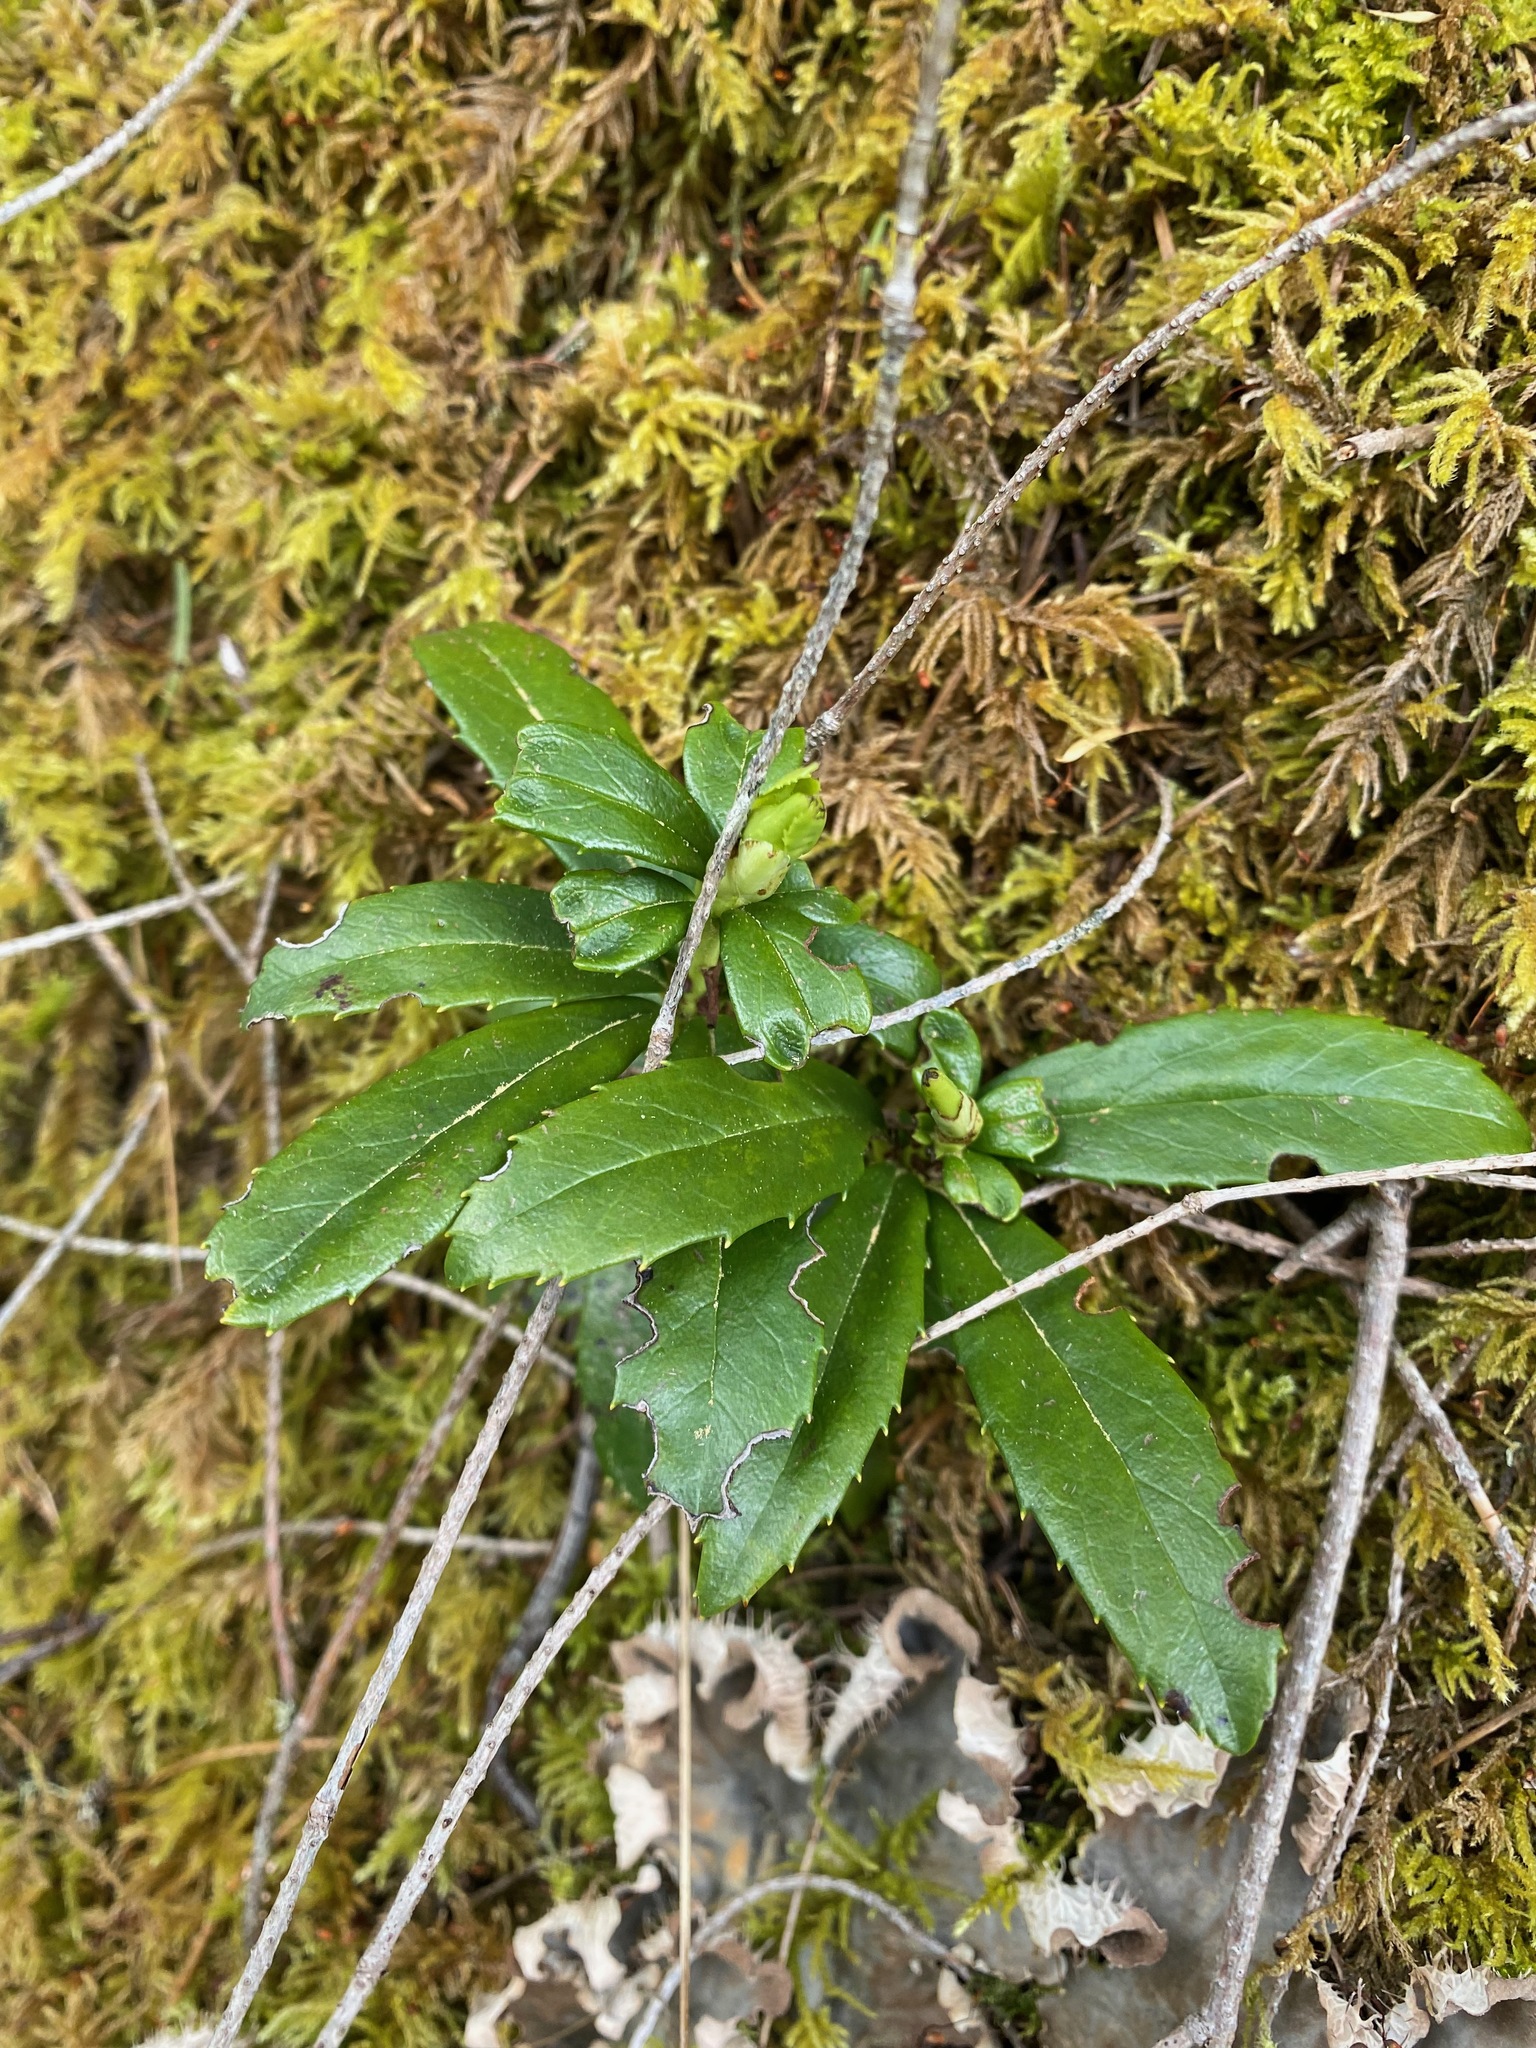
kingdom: Plantae
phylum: Tracheophyta
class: Magnoliopsida
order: Ericales
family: Ericaceae
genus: Chimaphila
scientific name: Chimaphila umbellata
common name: Pipsissewa
